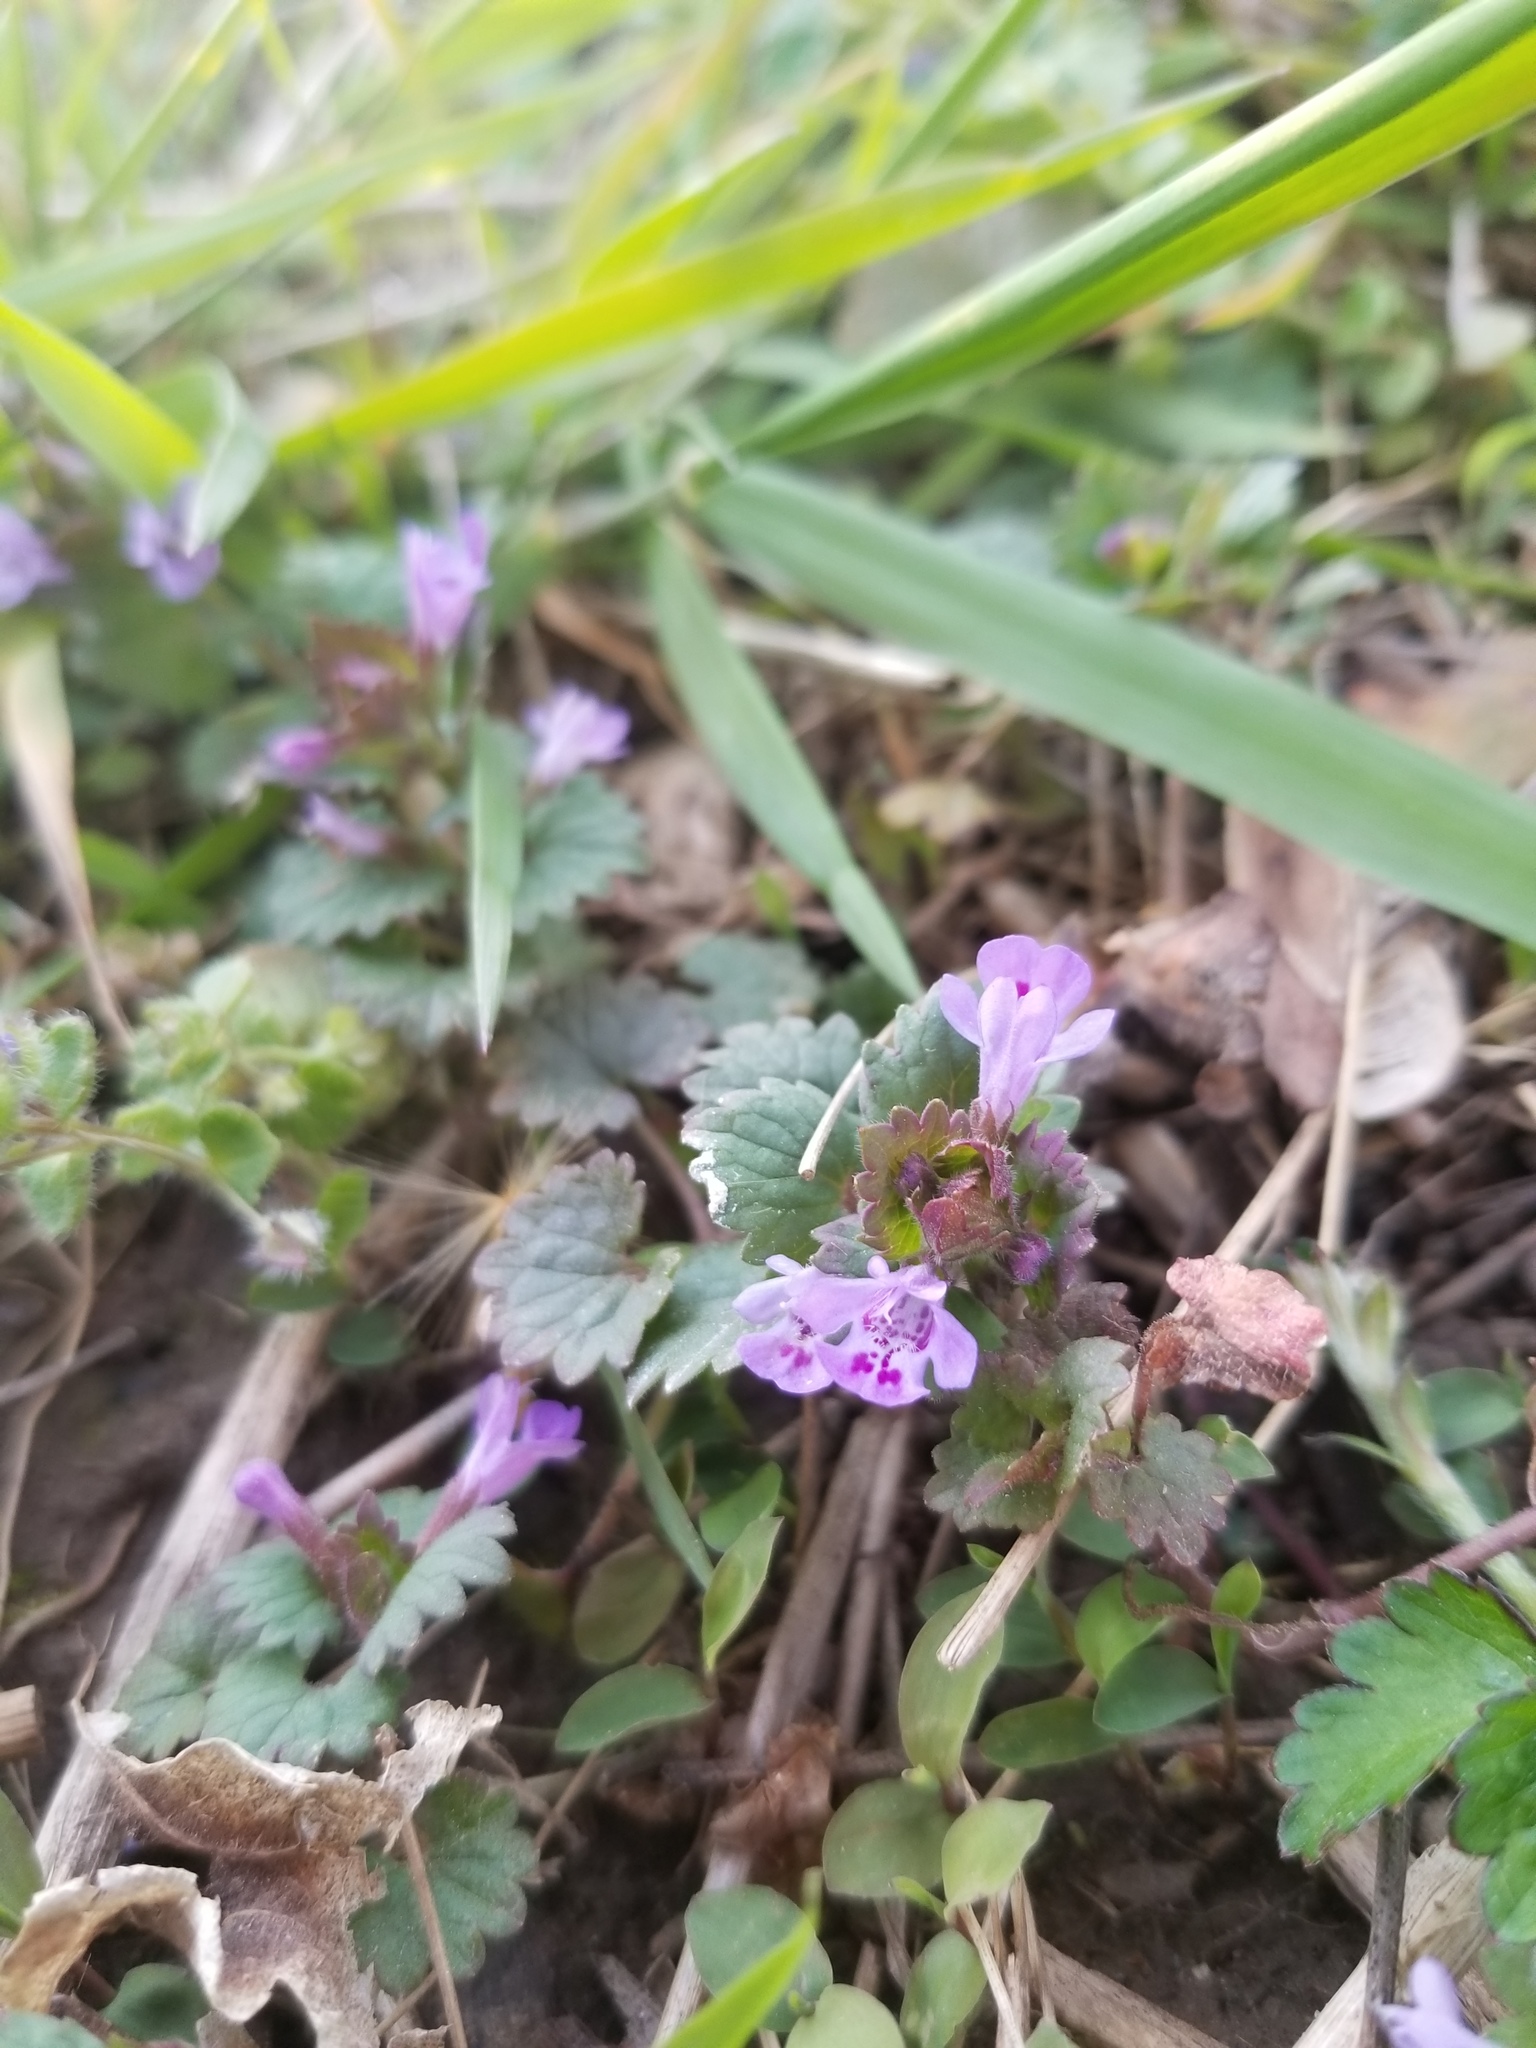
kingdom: Plantae
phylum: Tracheophyta
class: Magnoliopsida
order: Lamiales
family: Lamiaceae
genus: Glechoma
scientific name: Glechoma hederacea
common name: Ground ivy
